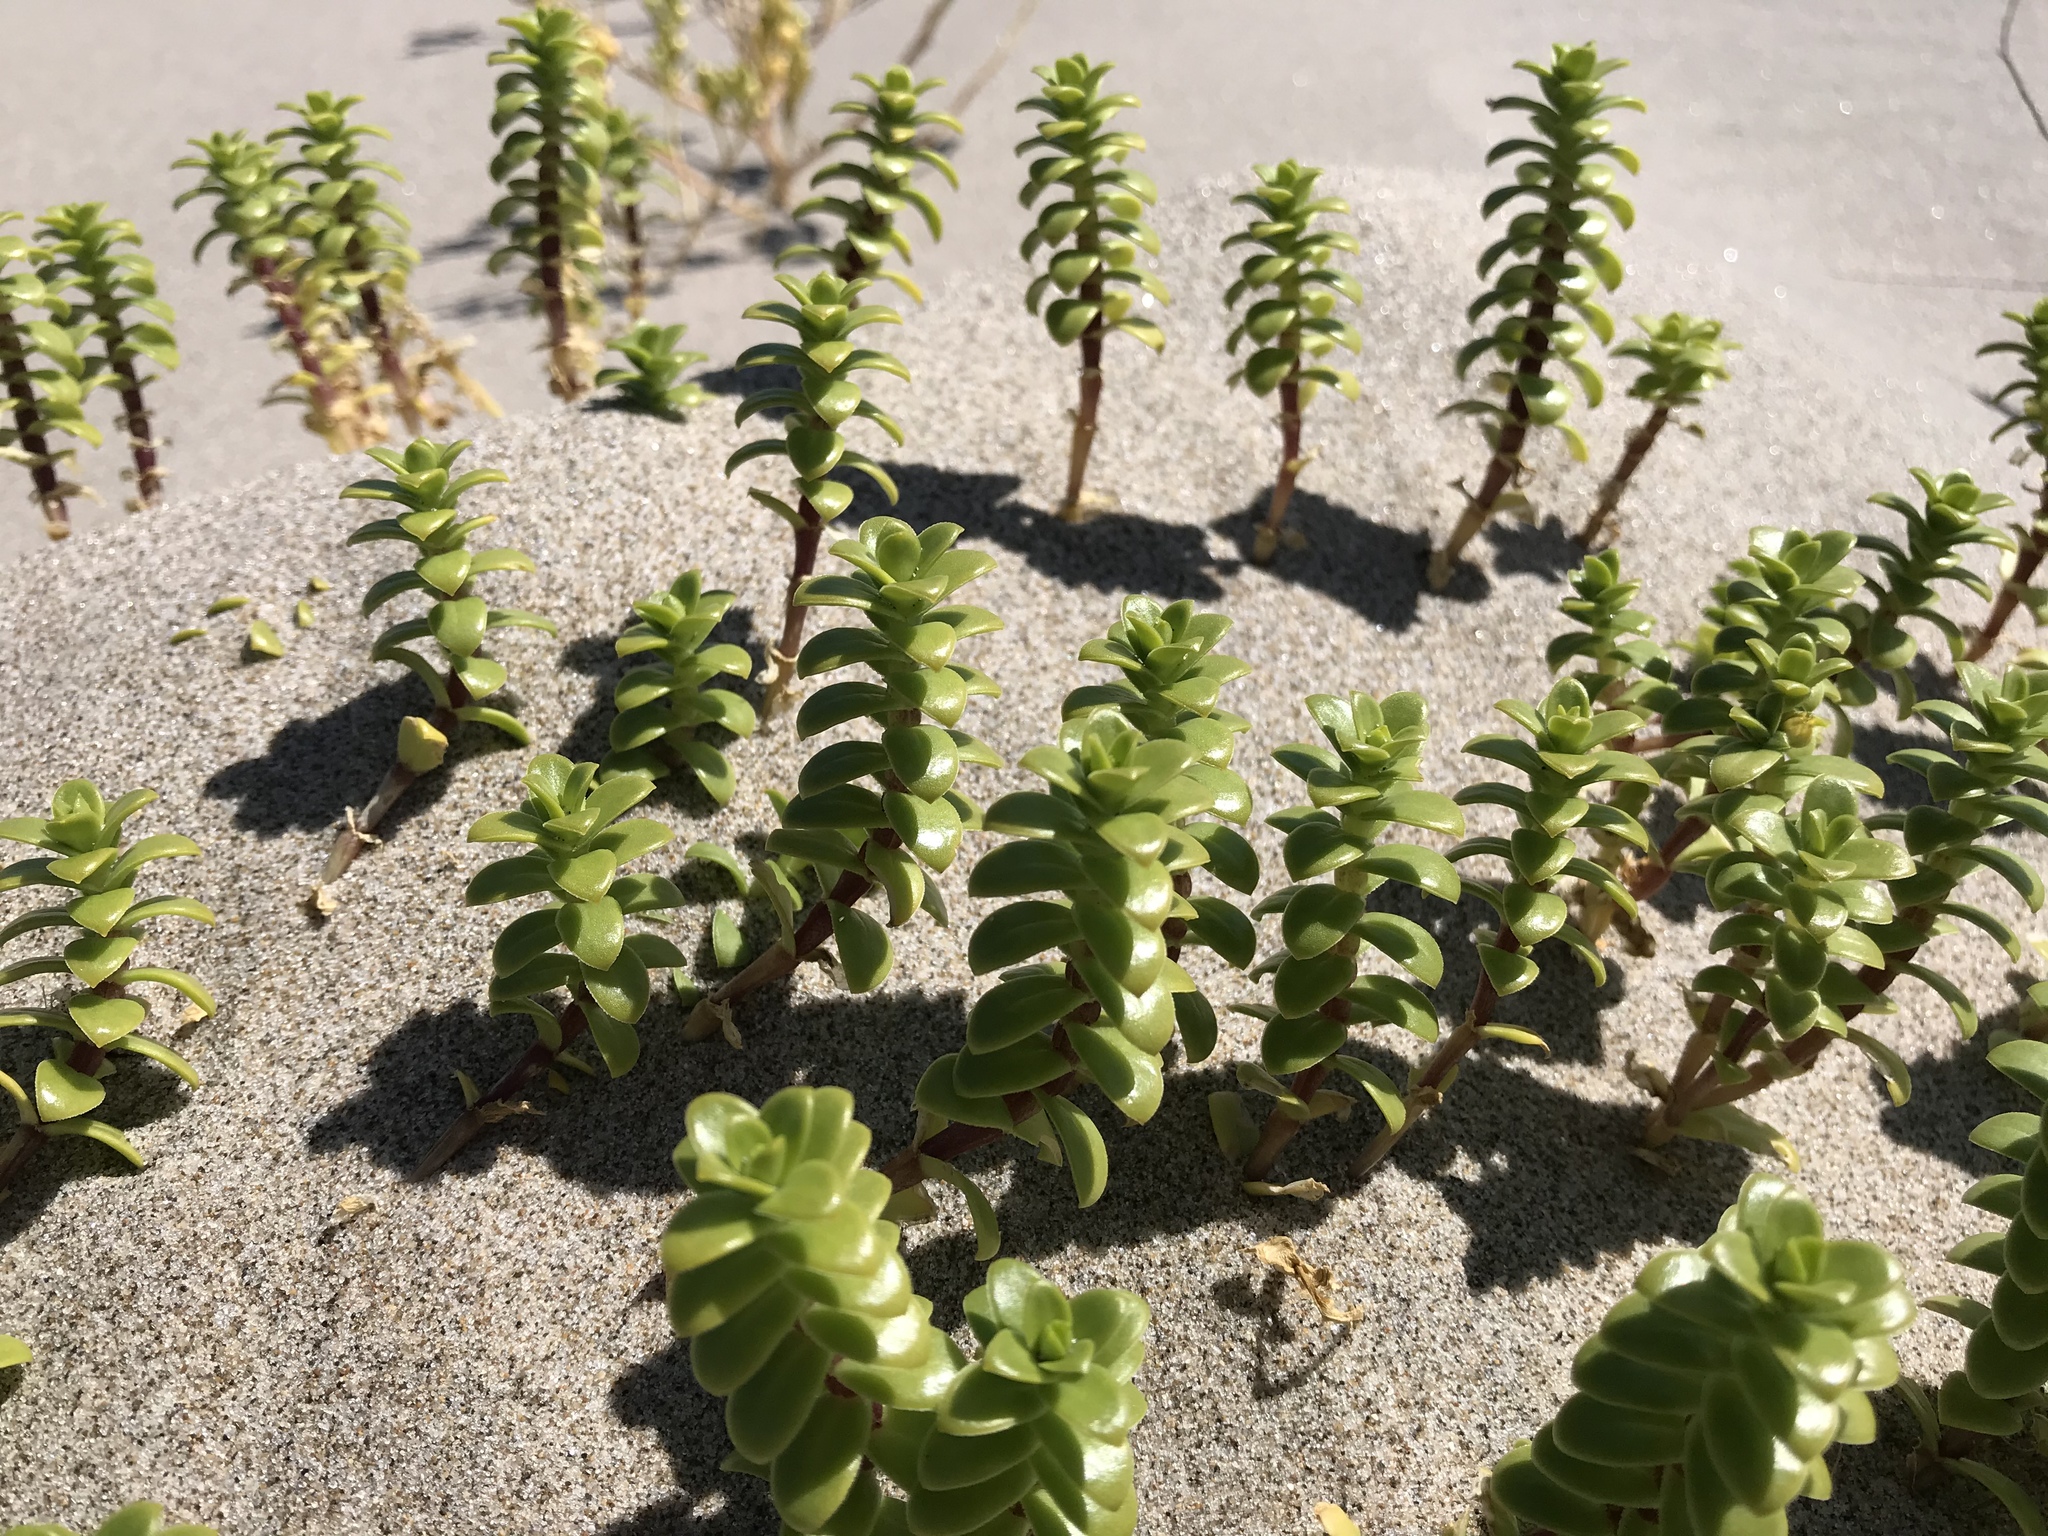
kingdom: Plantae
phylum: Tracheophyta
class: Magnoliopsida
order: Caryophyllales
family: Caryophyllaceae
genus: Honckenya
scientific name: Honckenya peploides
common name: Sea sandwort
